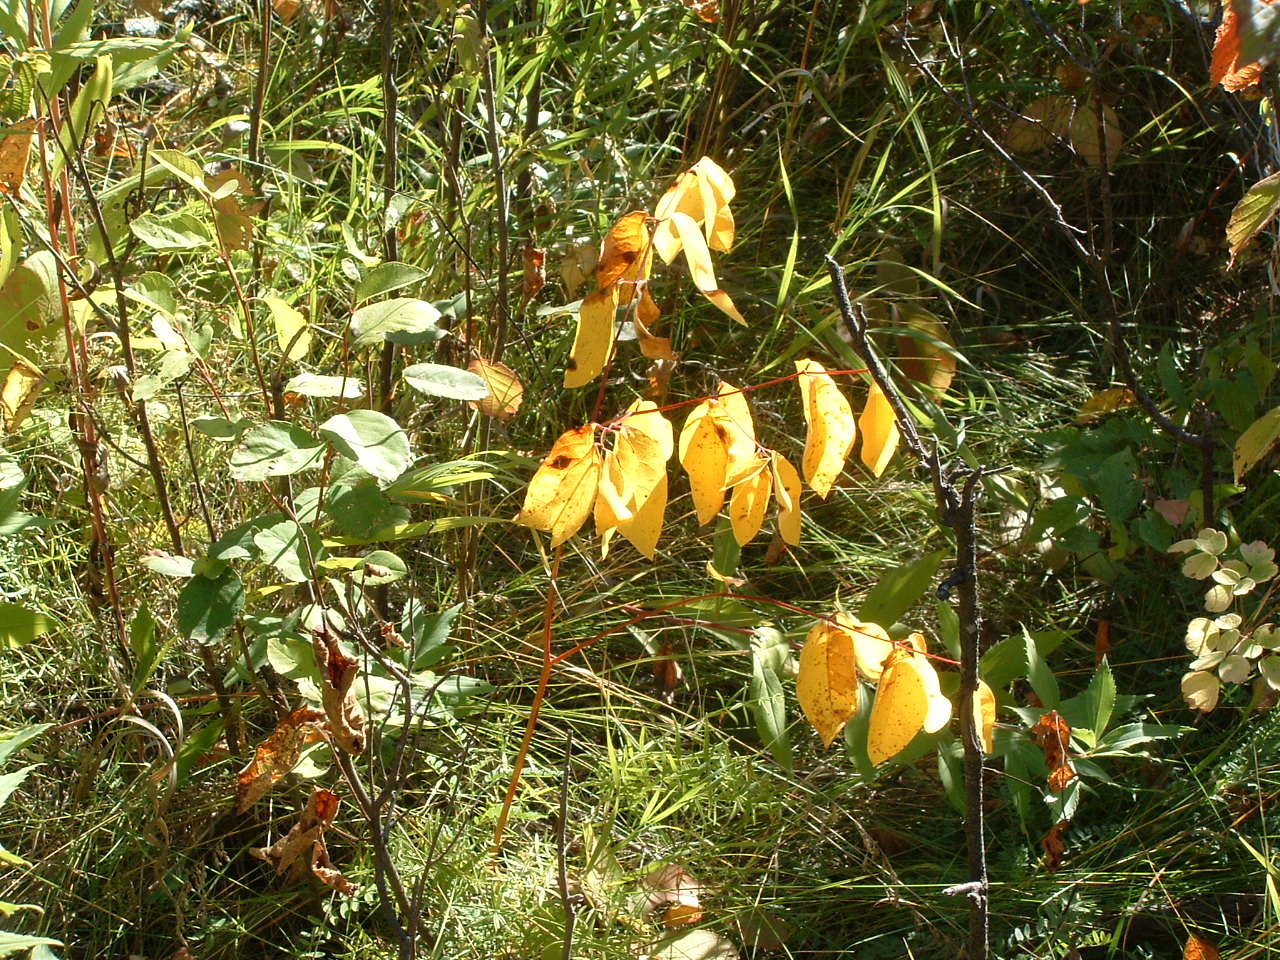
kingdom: Plantae
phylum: Tracheophyta
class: Magnoliopsida
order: Gentianales
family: Apocynaceae
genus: Apocynum
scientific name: Apocynum androsaemifolium
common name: Spreading dogbane
